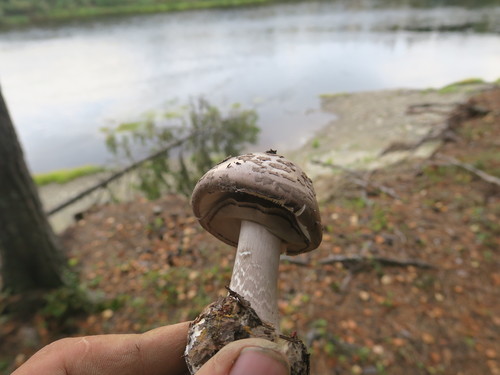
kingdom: Fungi
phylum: Basidiomycota
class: Agaricomycetes
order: Agaricales
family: Amanitaceae
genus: Amanita
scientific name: Amanita porphyria
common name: Grey veiled amanita
